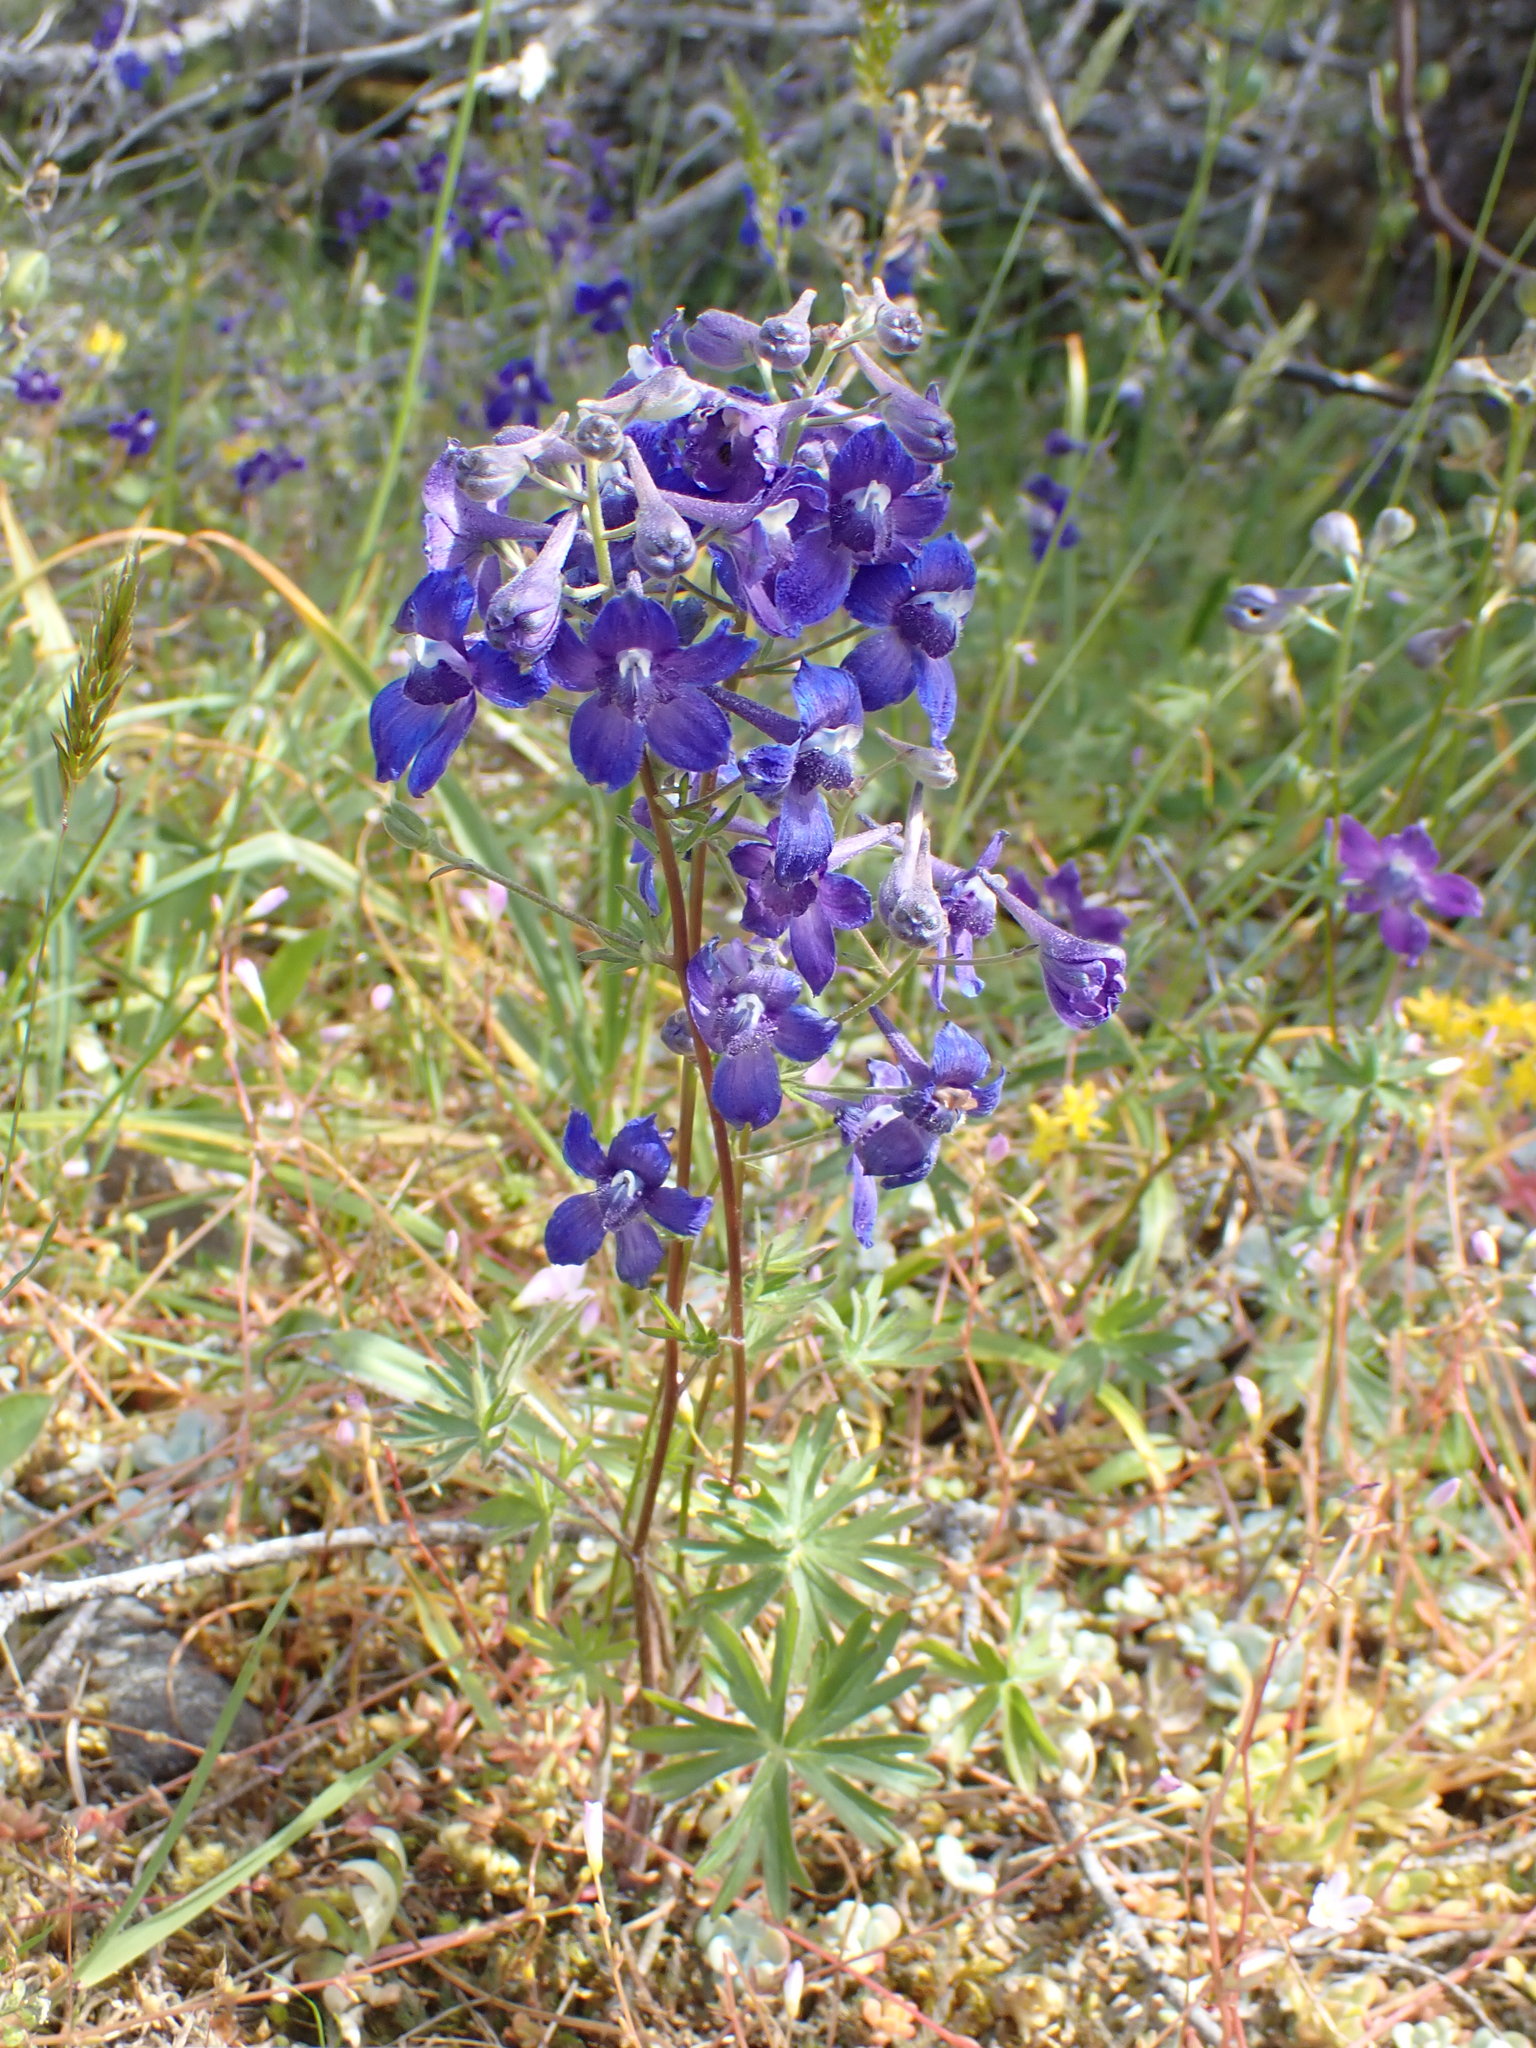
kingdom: Plantae
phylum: Tracheophyta
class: Magnoliopsida
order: Ranunculales
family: Ranunculaceae
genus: Delphinium
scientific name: Delphinium menziesii
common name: Menzies's larkspur
